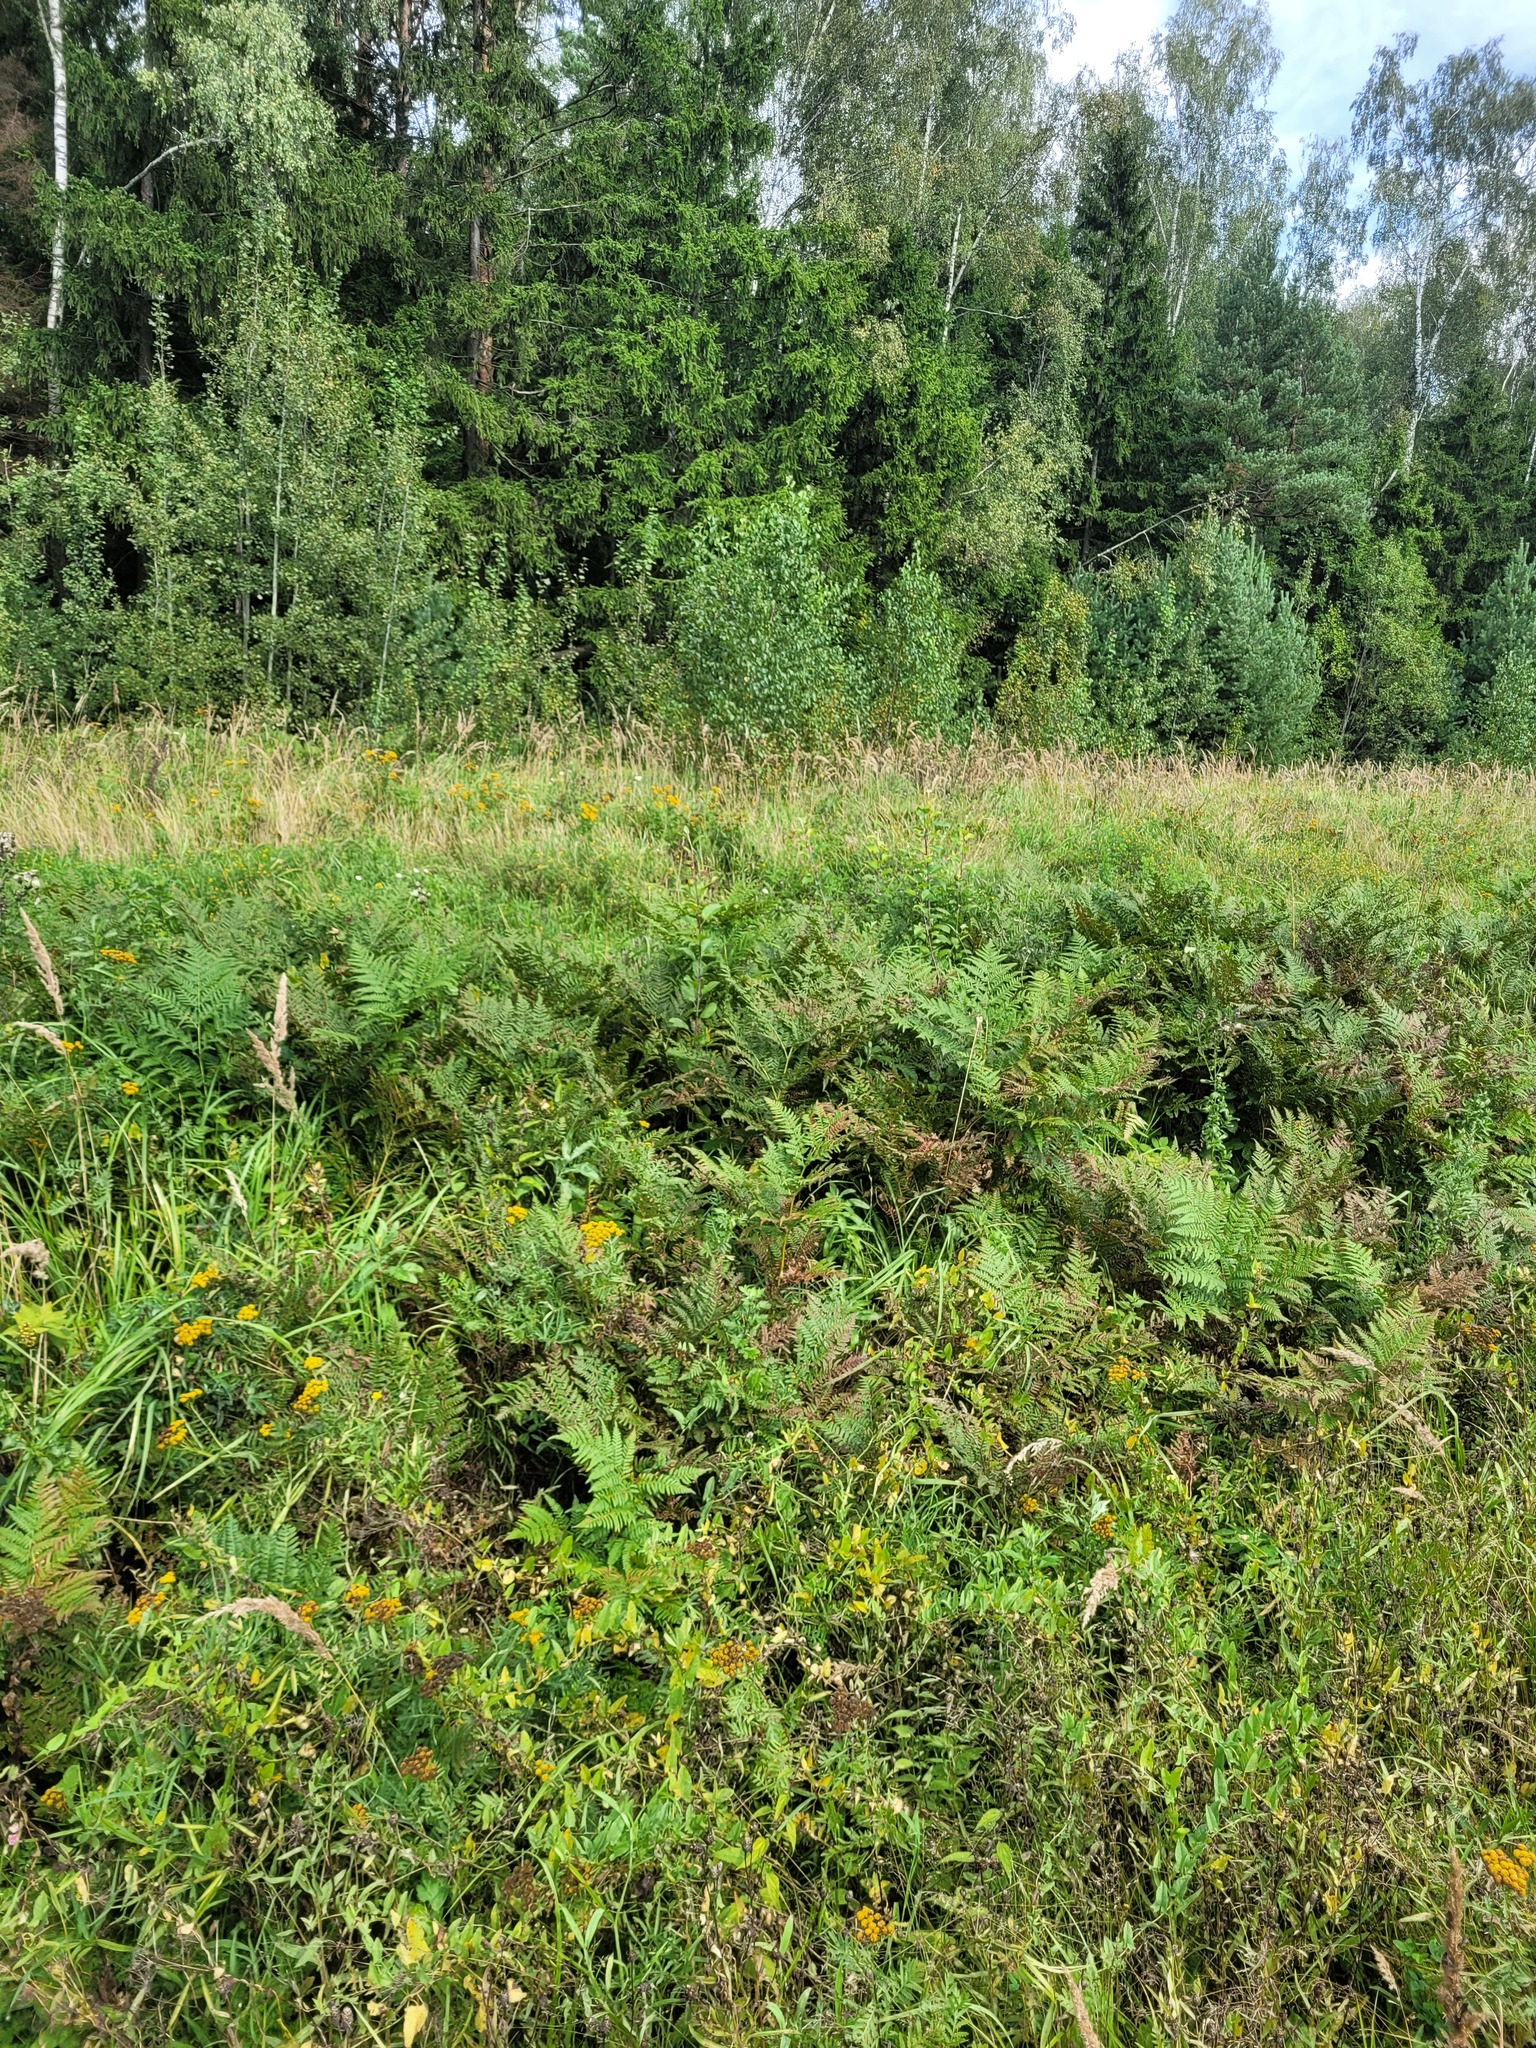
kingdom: Plantae
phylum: Tracheophyta
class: Polypodiopsida
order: Polypodiales
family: Dennstaedtiaceae
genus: Pteridium
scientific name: Pteridium aquilinum
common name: Bracken
